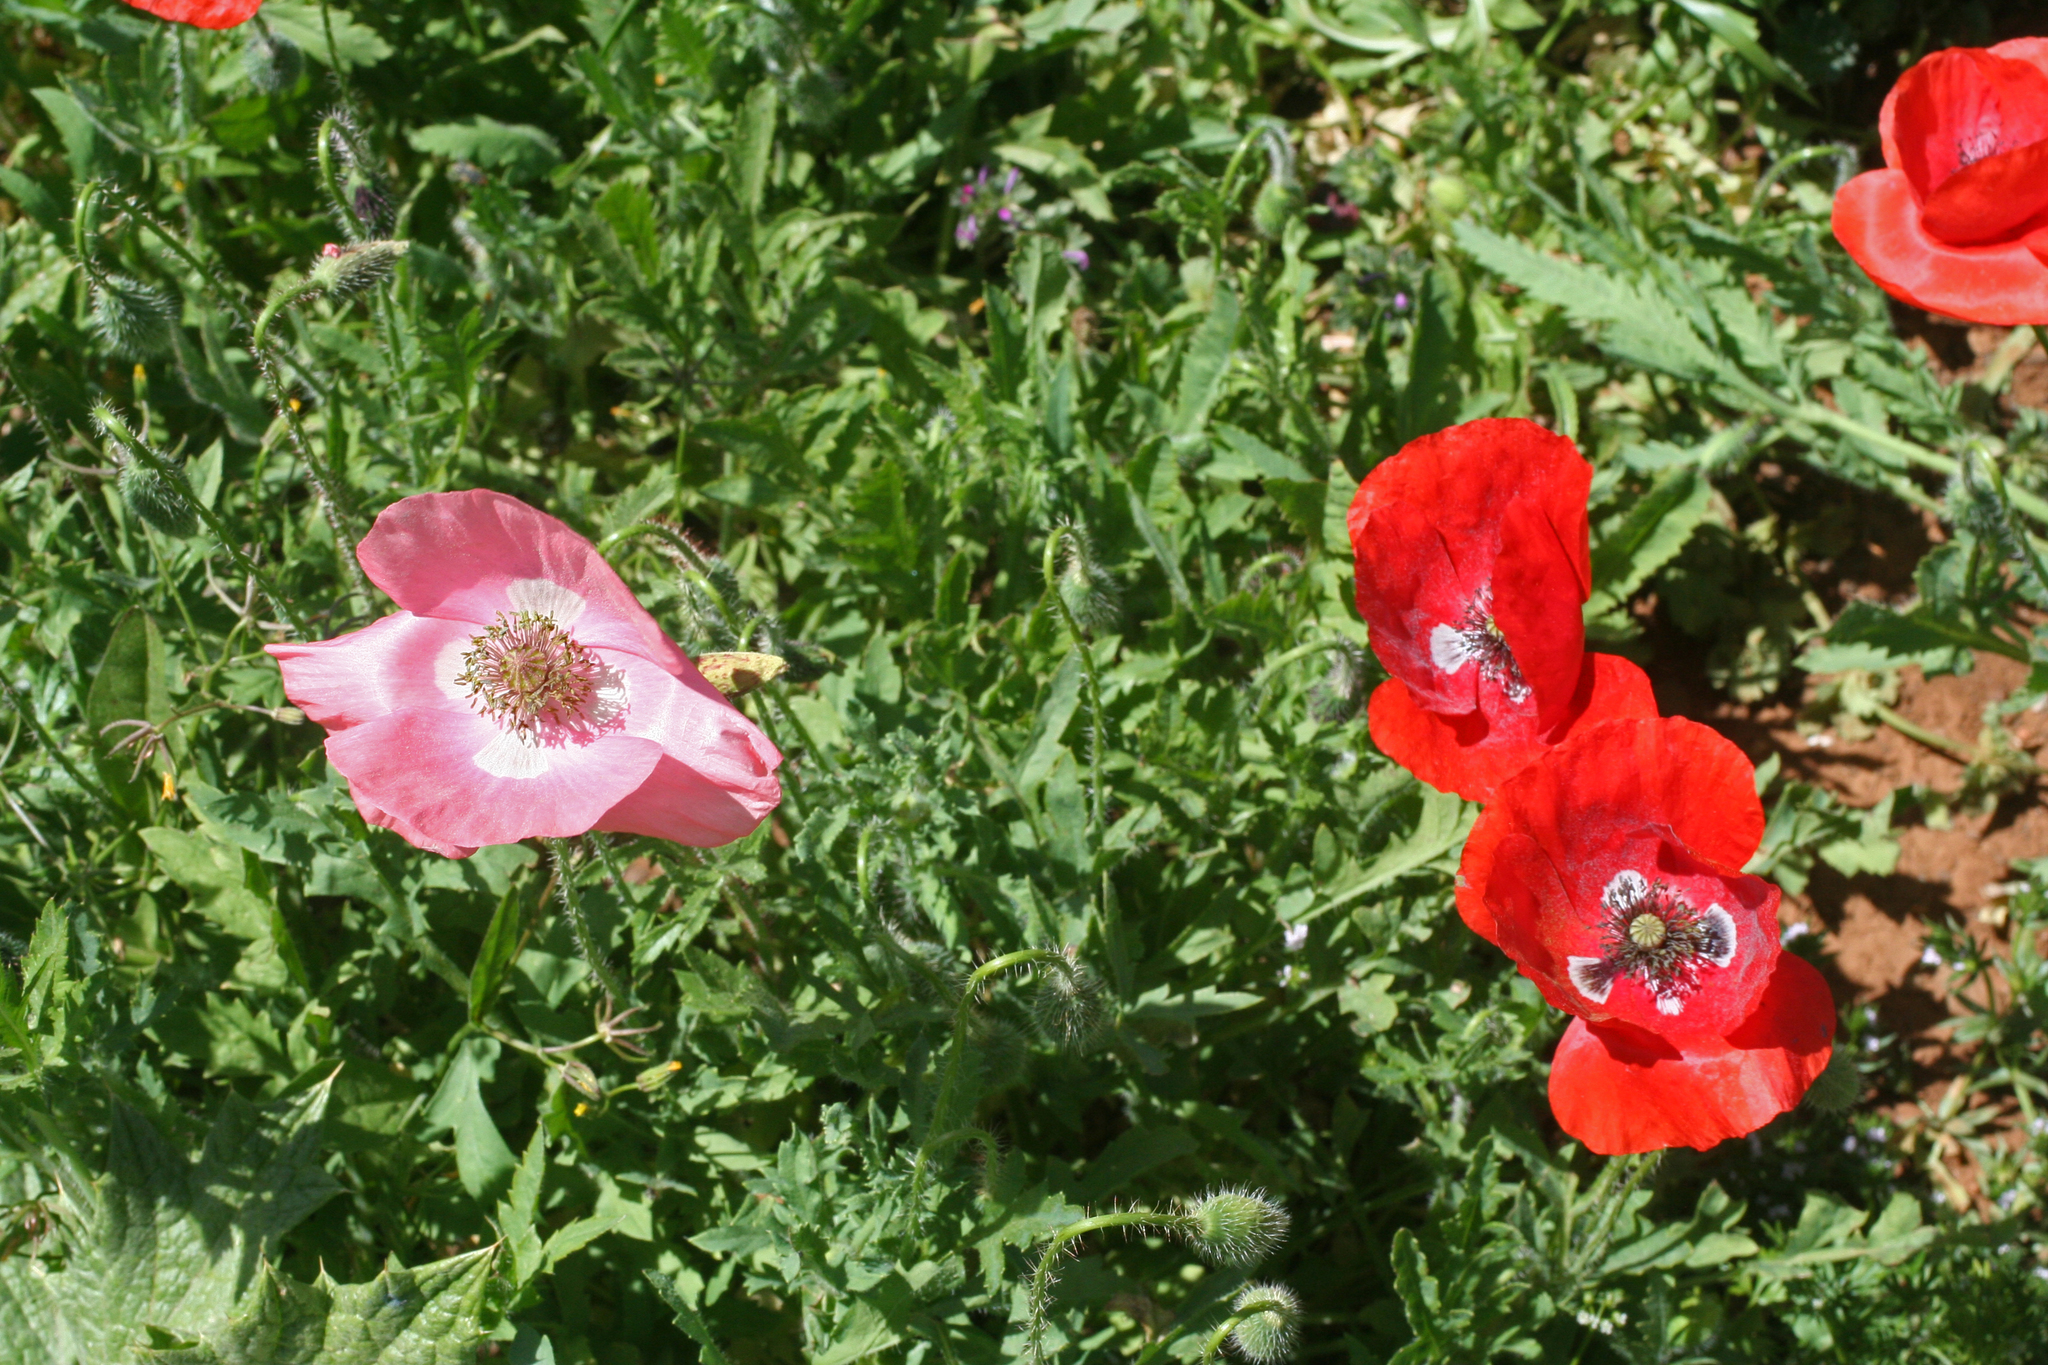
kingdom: Plantae
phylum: Tracheophyta
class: Magnoliopsida
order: Ranunculales
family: Papaveraceae
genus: Papaver
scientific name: Papaver rhoeas
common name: Corn poppy
